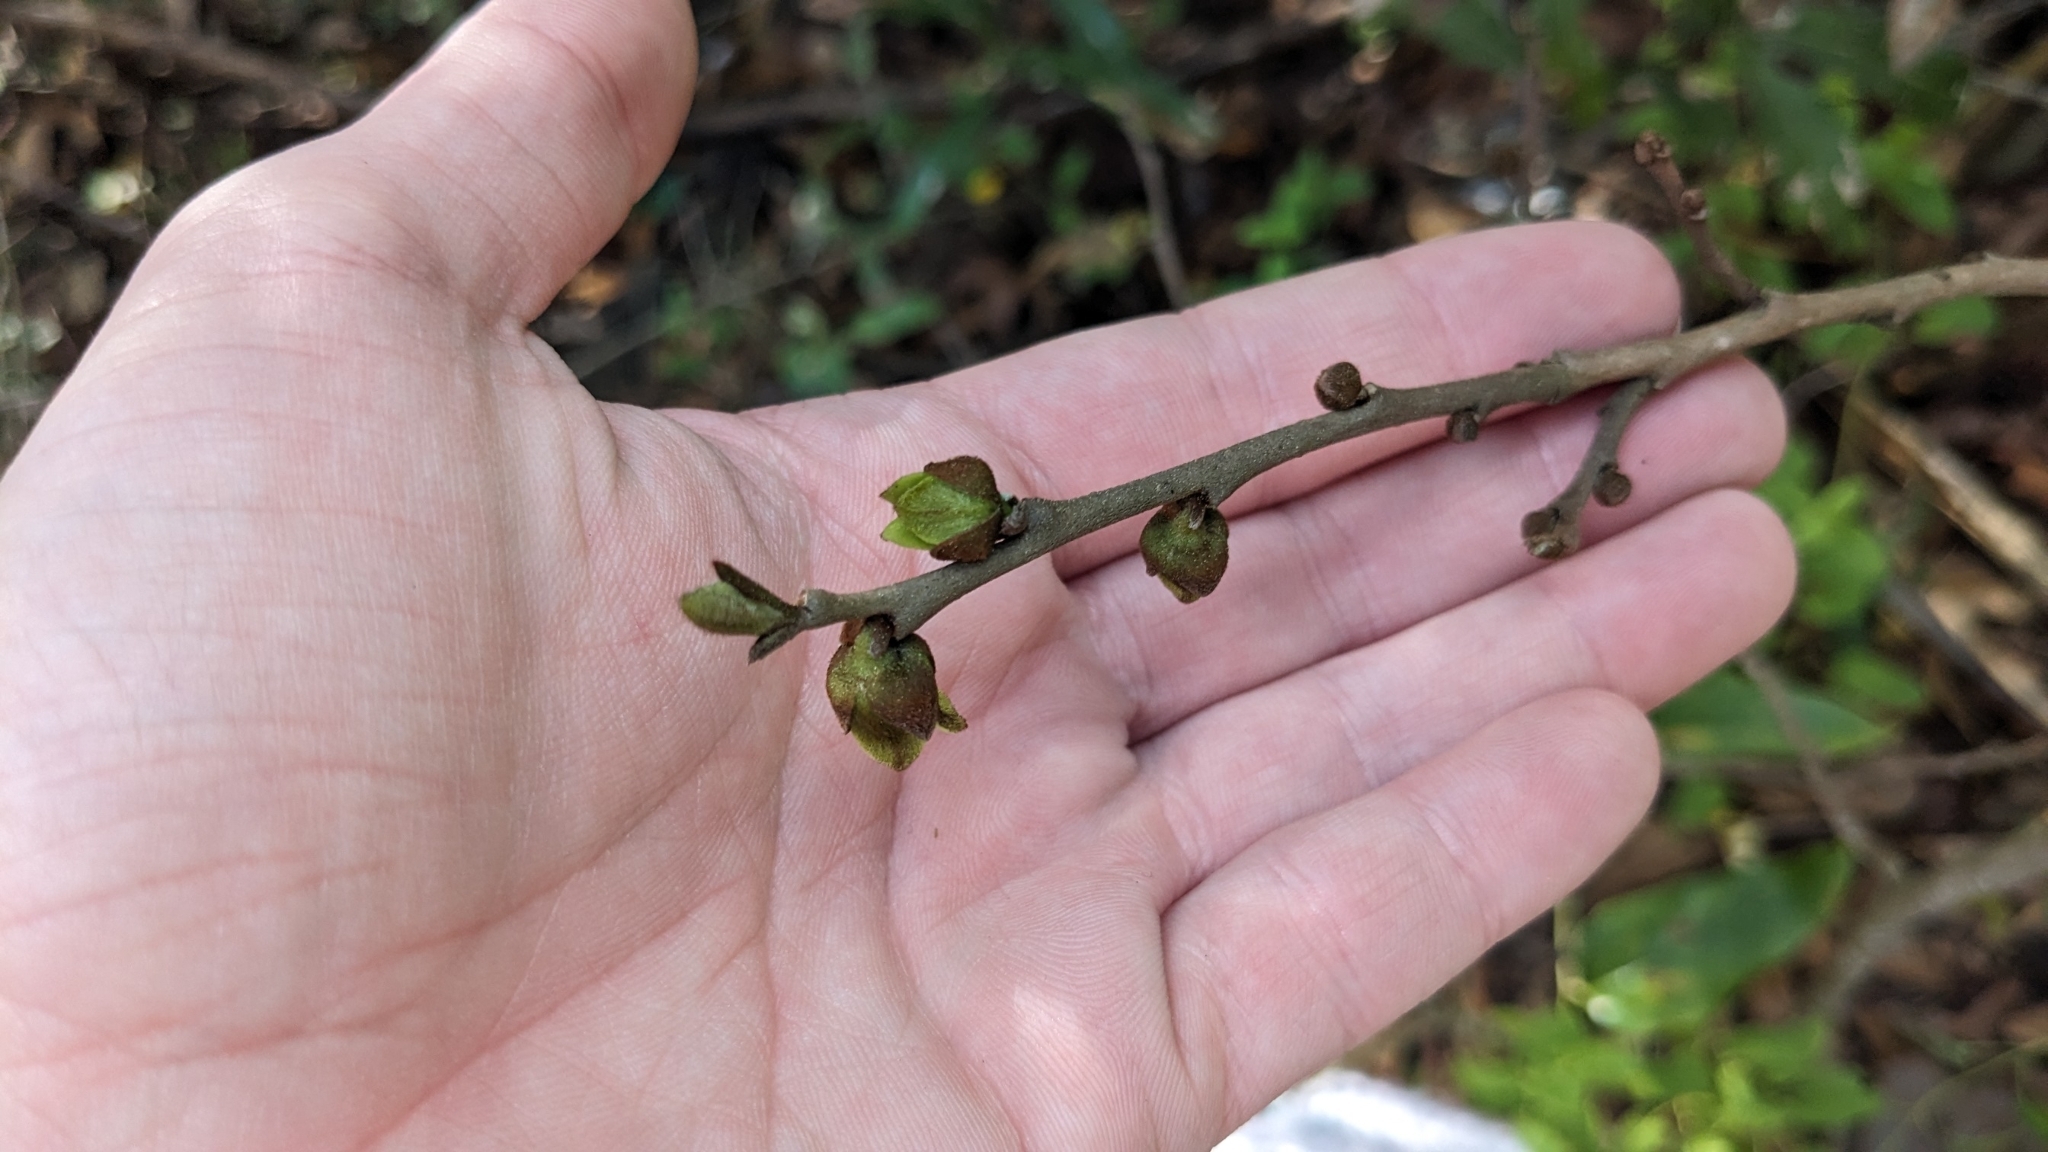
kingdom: Plantae
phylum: Tracheophyta
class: Magnoliopsida
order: Magnoliales
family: Annonaceae
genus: Asimina
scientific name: Asimina parviflora
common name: Dwarf pawpaw
